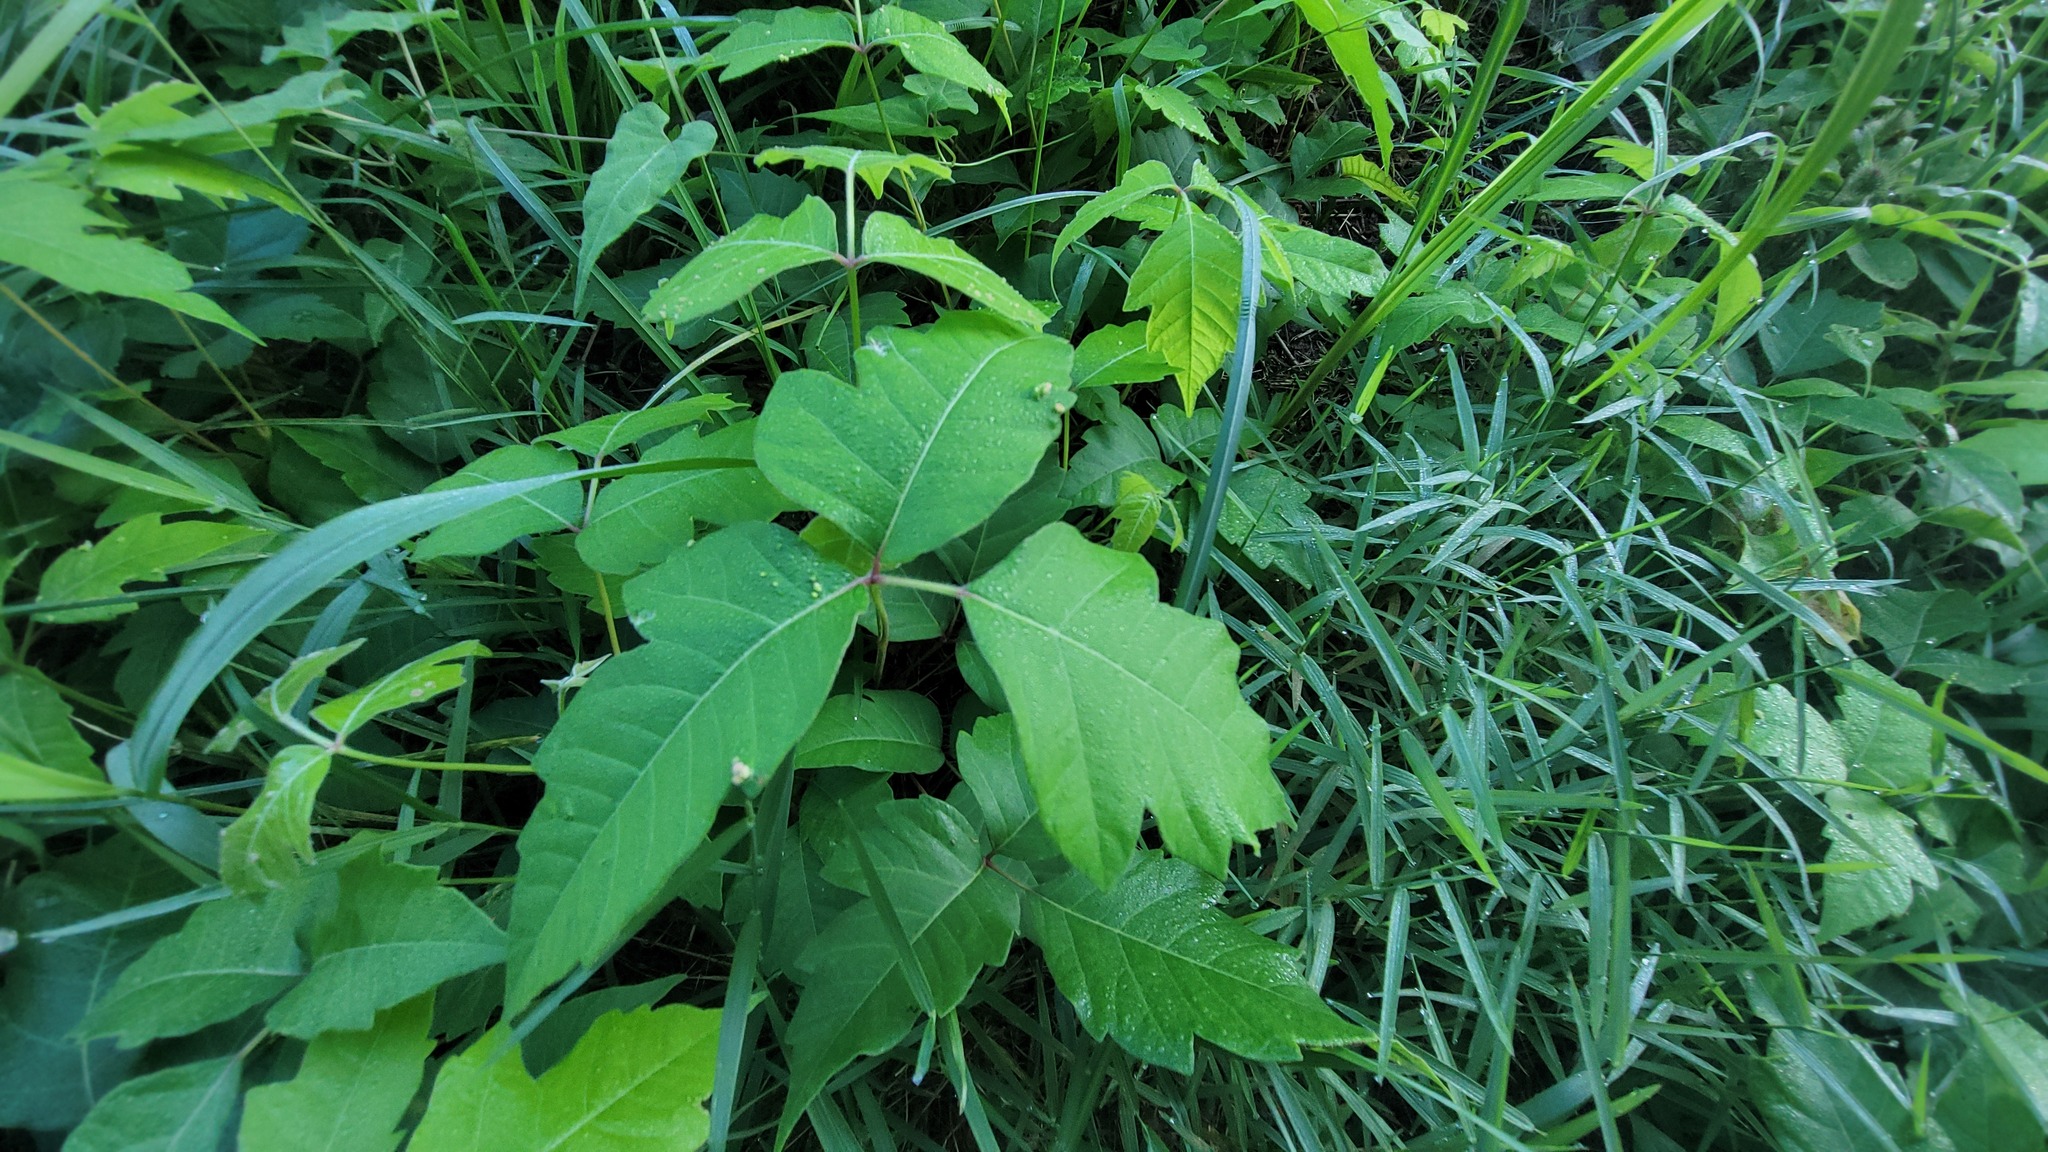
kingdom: Plantae
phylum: Tracheophyta
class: Magnoliopsida
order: Sapindales
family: Anacardiaceae
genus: Toxicodendron
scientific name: Toxicodendron radicans
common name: Poison ivy
